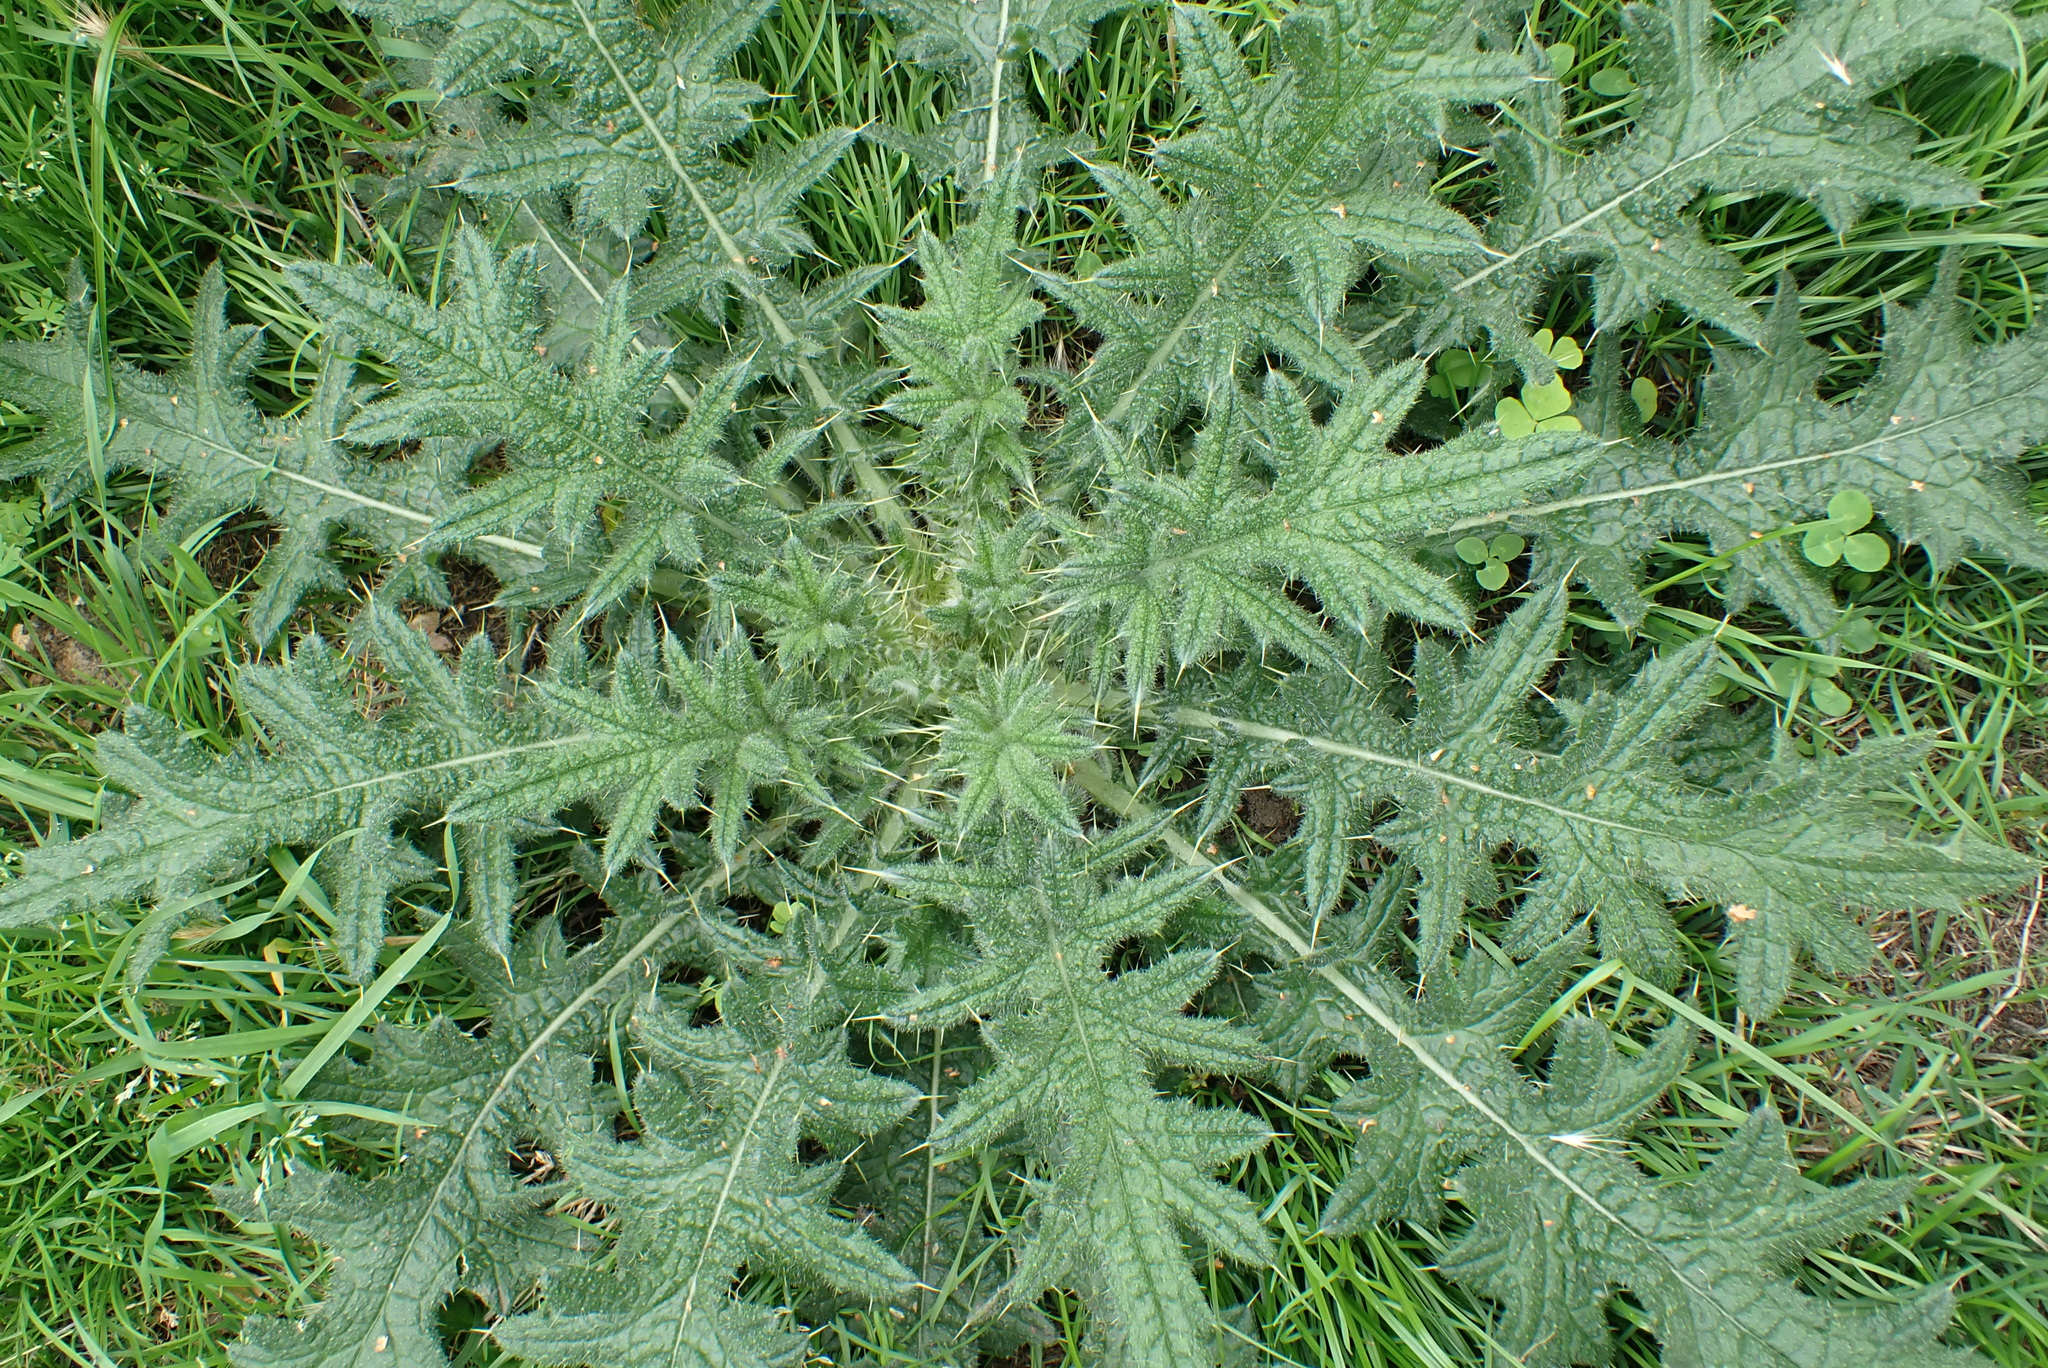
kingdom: Plantae
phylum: Tracheophyta
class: Magnoliopsida
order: Asterales
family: Asteraceae
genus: Cirsium
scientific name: Cirsium vulgare
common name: Bull thistle
